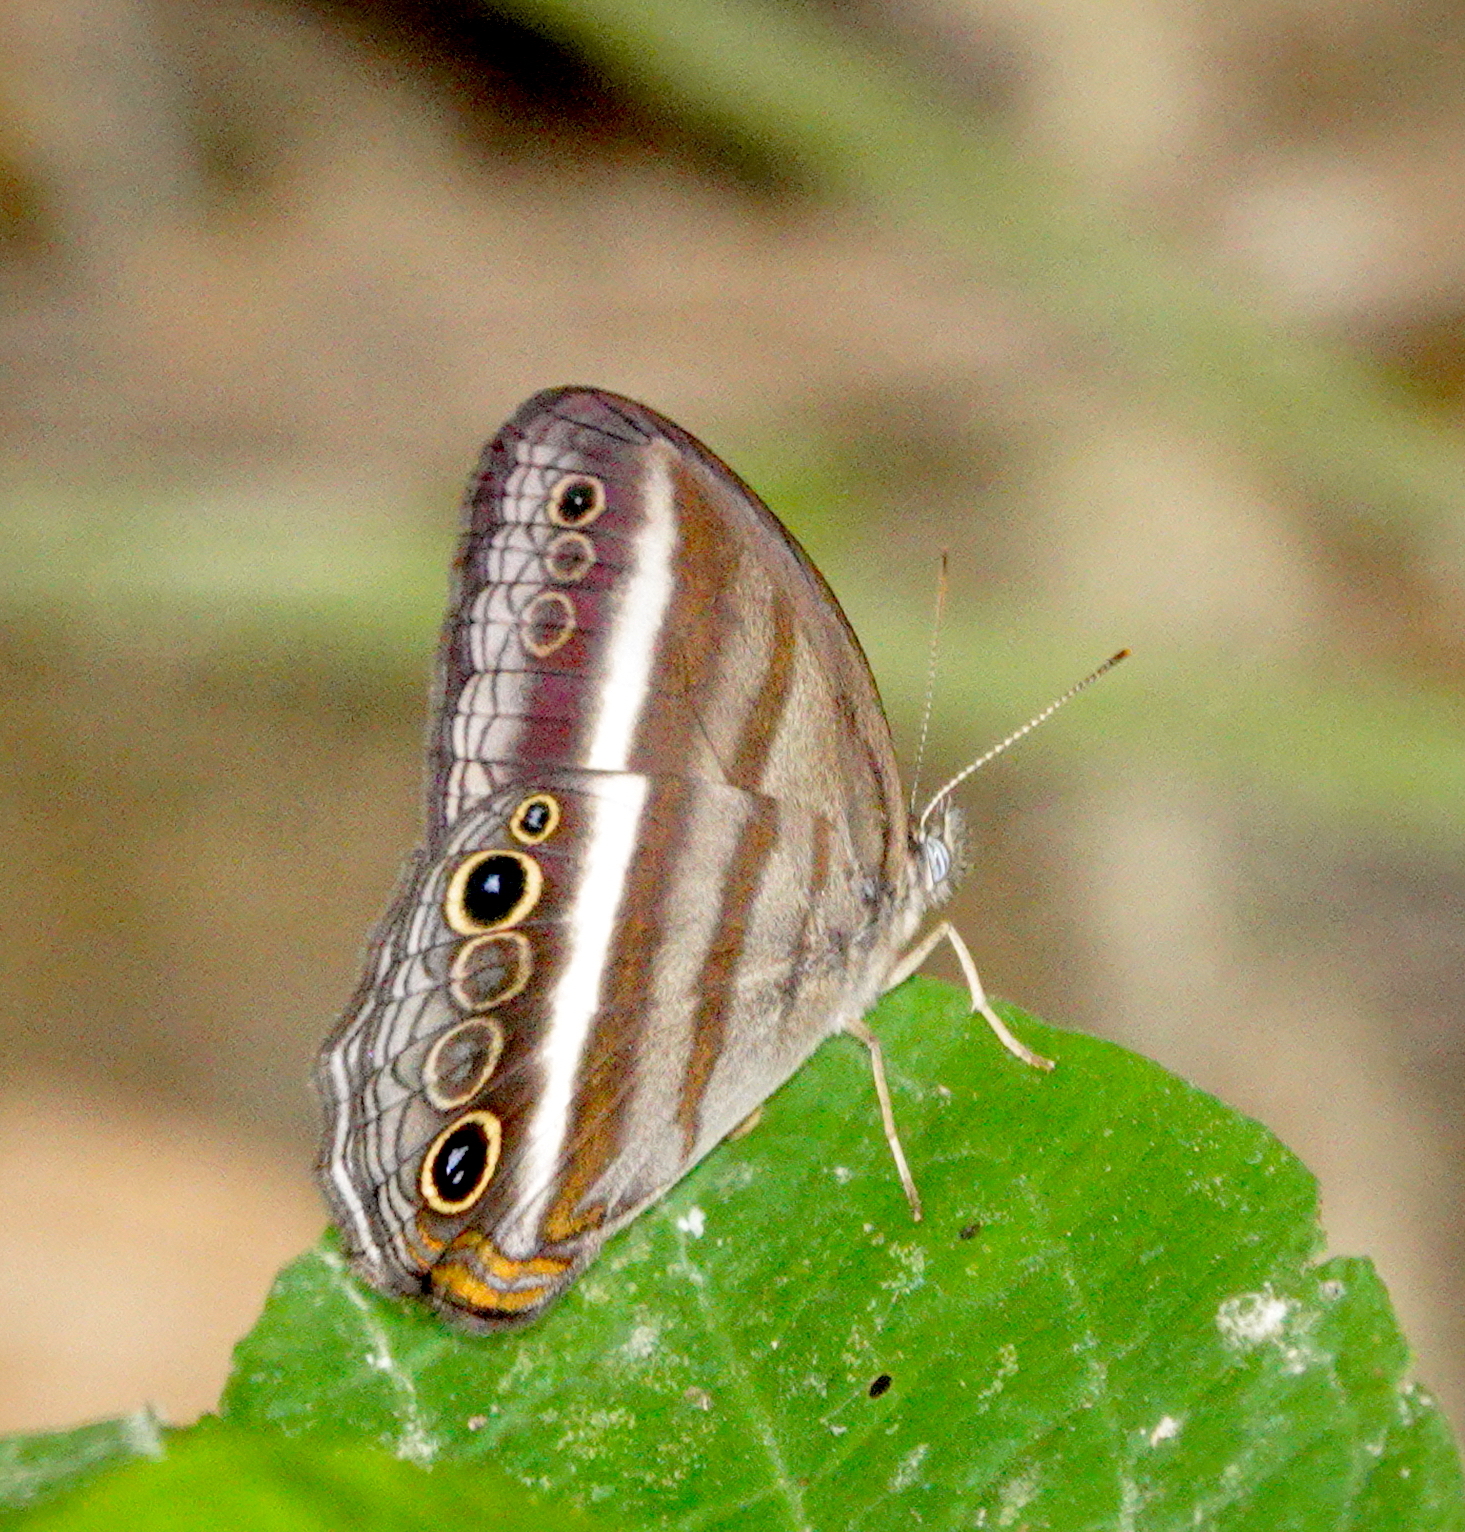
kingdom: Animalia
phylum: Arthropoda
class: Insecta
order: Lepidoptera
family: Nymphalidae
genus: Pareuptychia
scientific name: Pareuptychia summandosa
